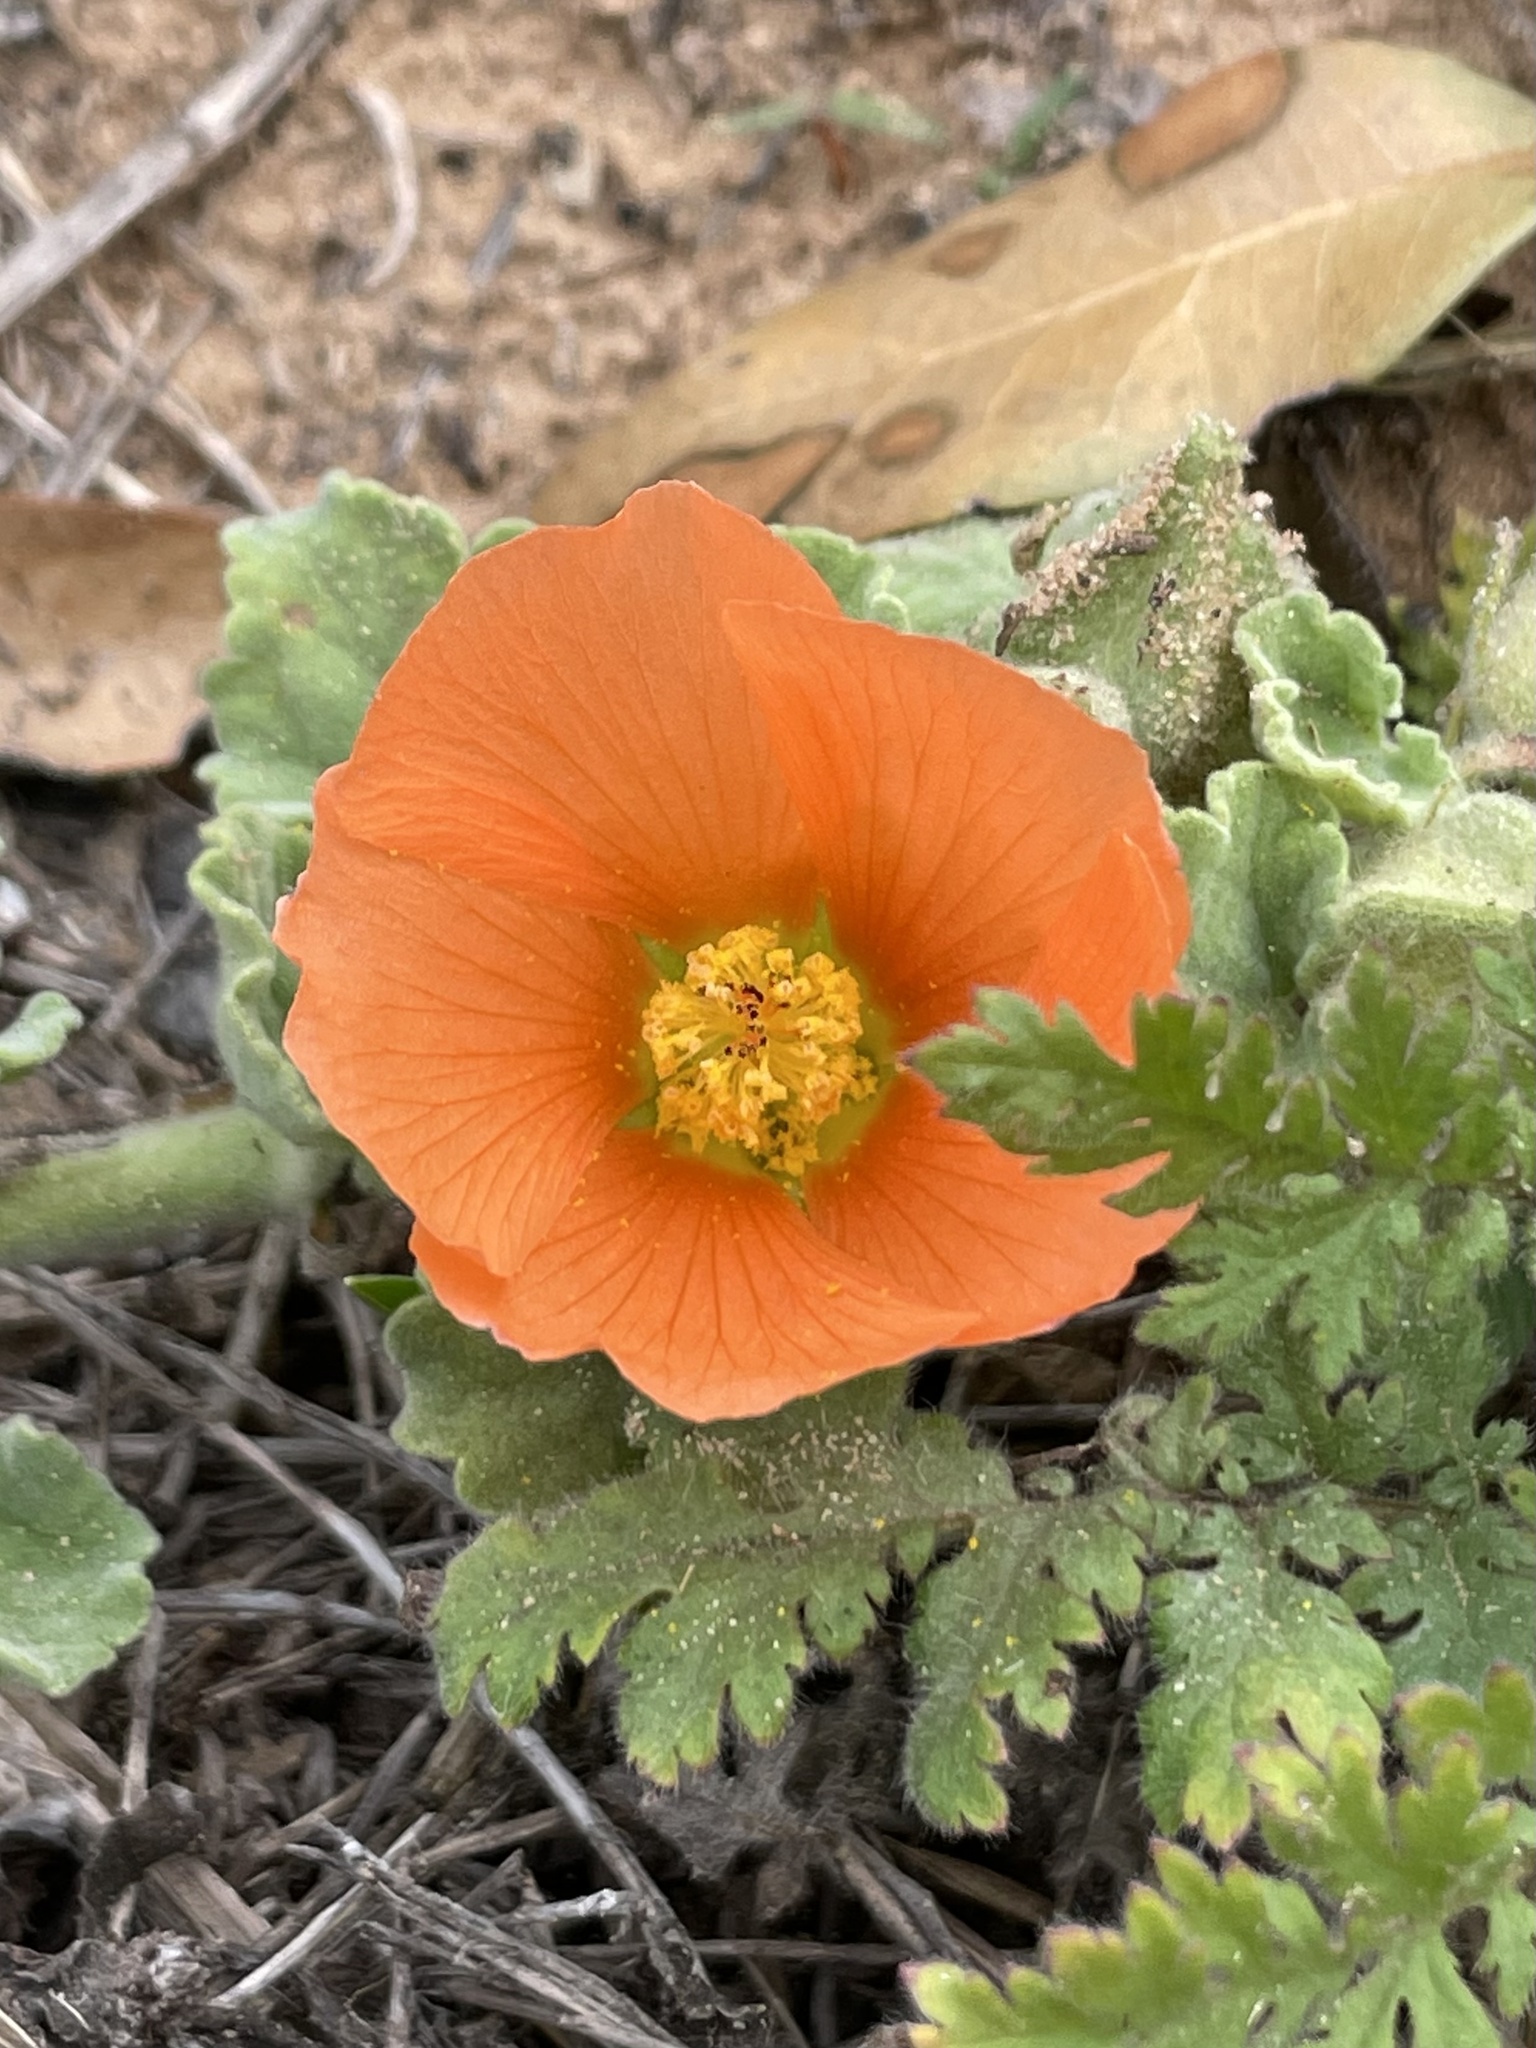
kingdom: Plantae
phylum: Tracheophyta
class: Magnoliopsida
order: Malvales
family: Malvaceae
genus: Sphaeralcea
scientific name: Sphaeralcea lindheimeri
